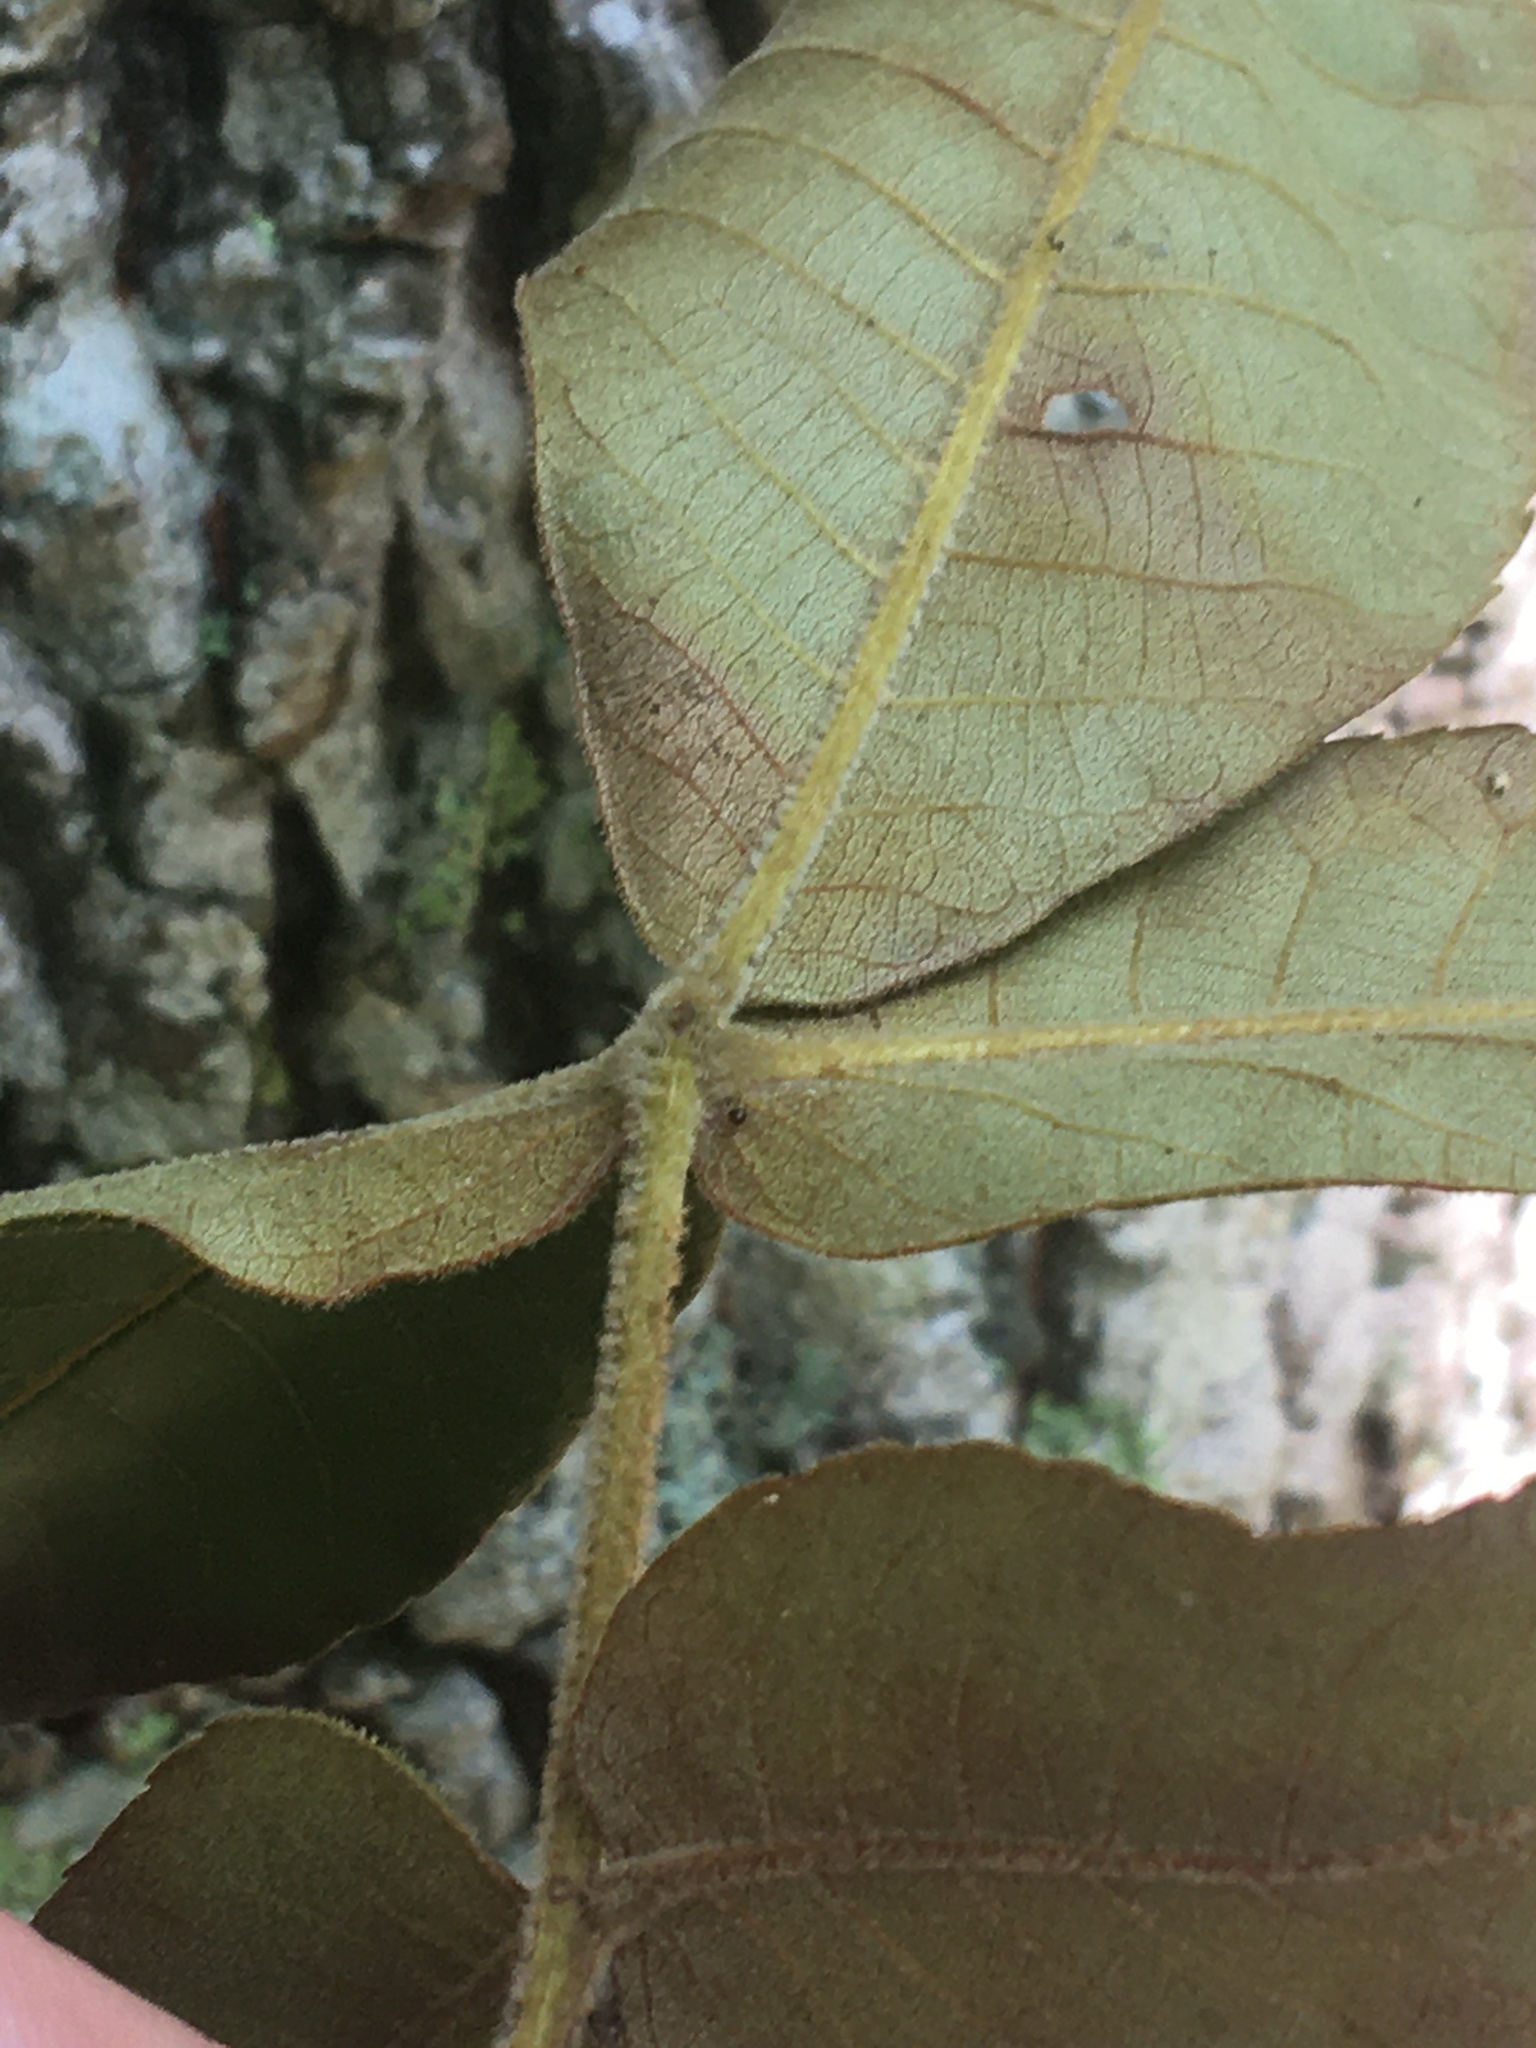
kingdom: Plantae
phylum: Tracheophyta
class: Magnoliopsida
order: Fagales
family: Juglandaceae
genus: Carya
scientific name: Carya alba
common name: Mockernut hickory
